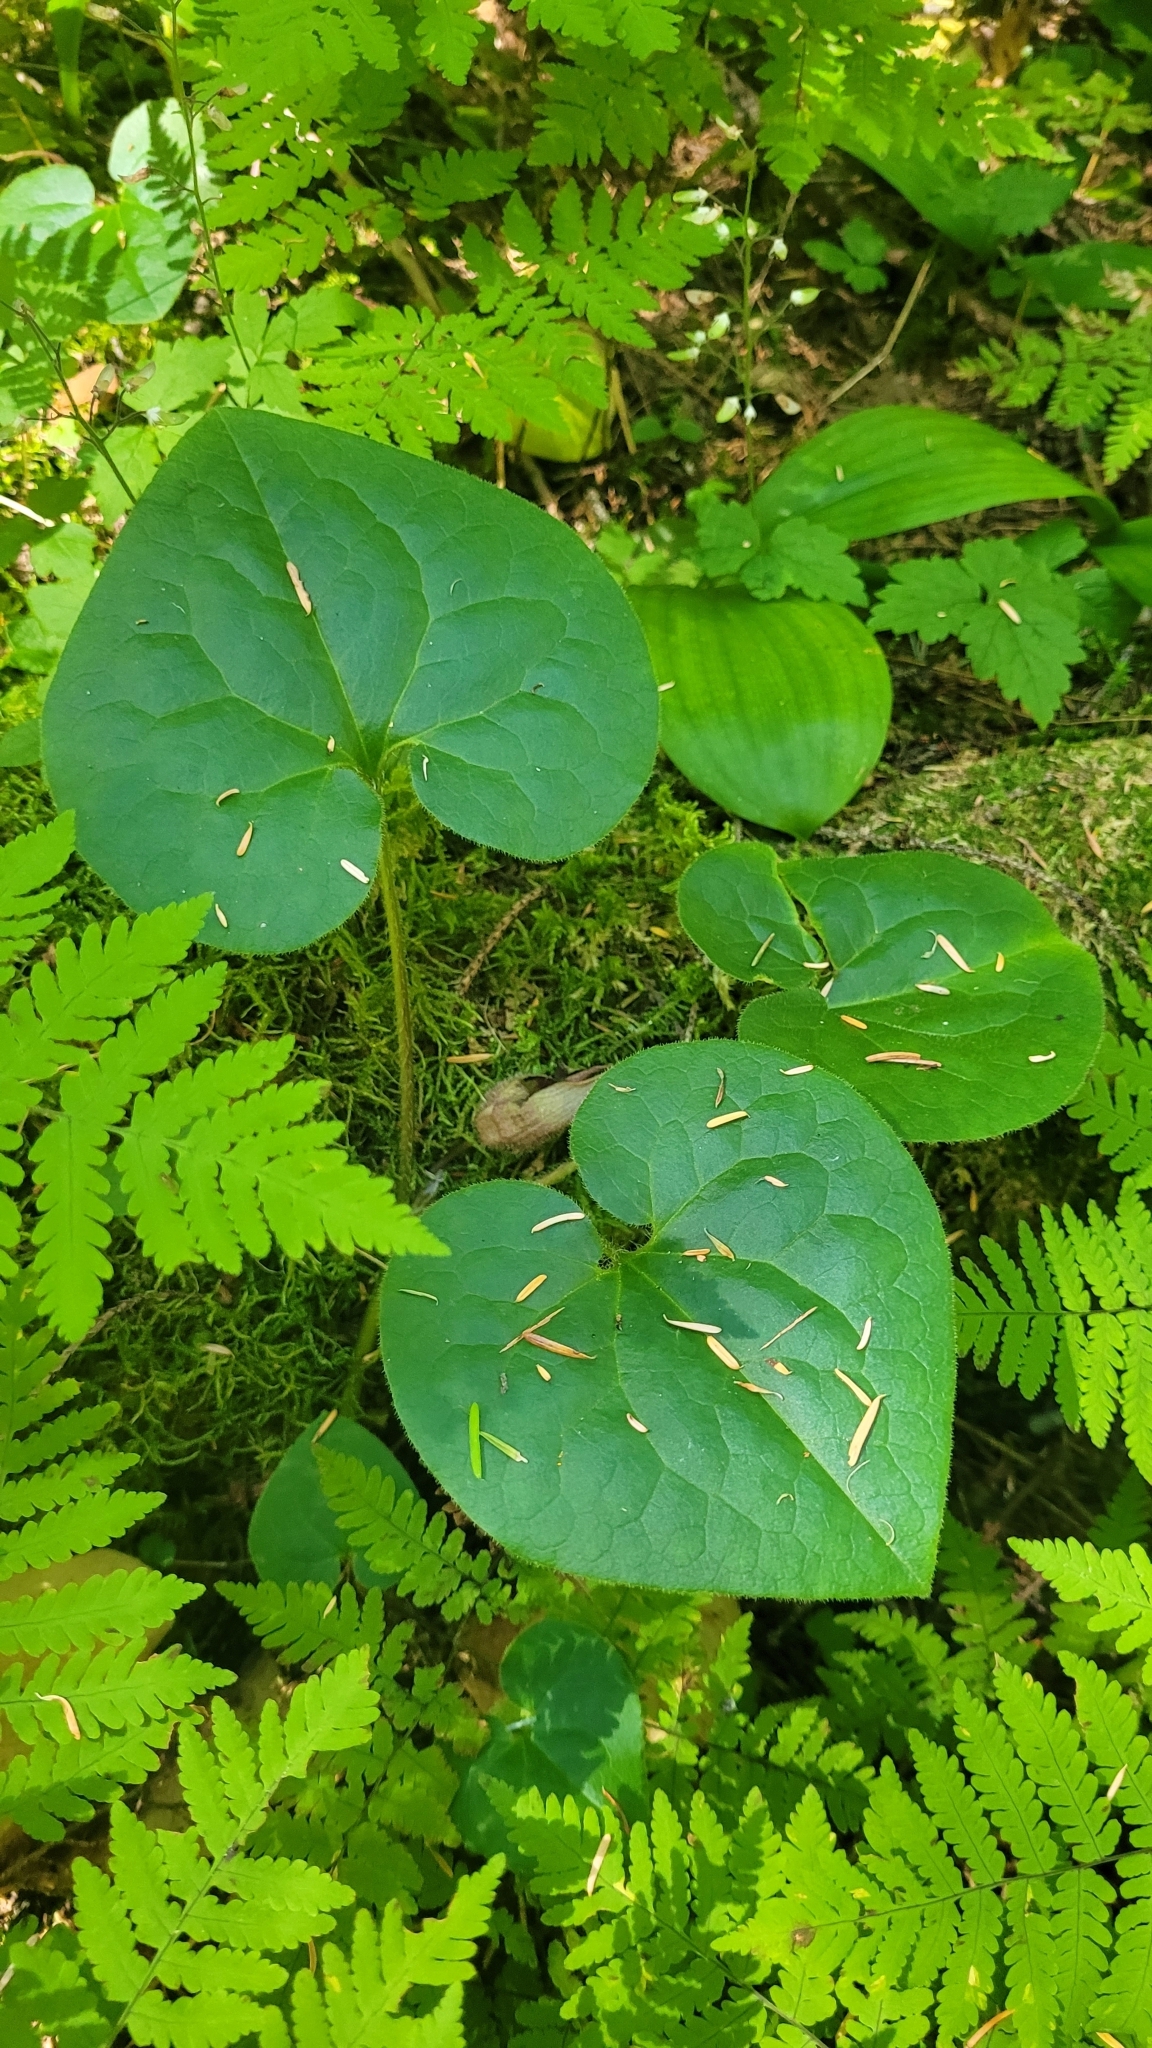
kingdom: Plantae
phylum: Tracheophyta
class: Magnoliopsida
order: Piperales
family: Aristolochiaceae
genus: Asarum
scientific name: Asarum caudatum
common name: Wild ginger
